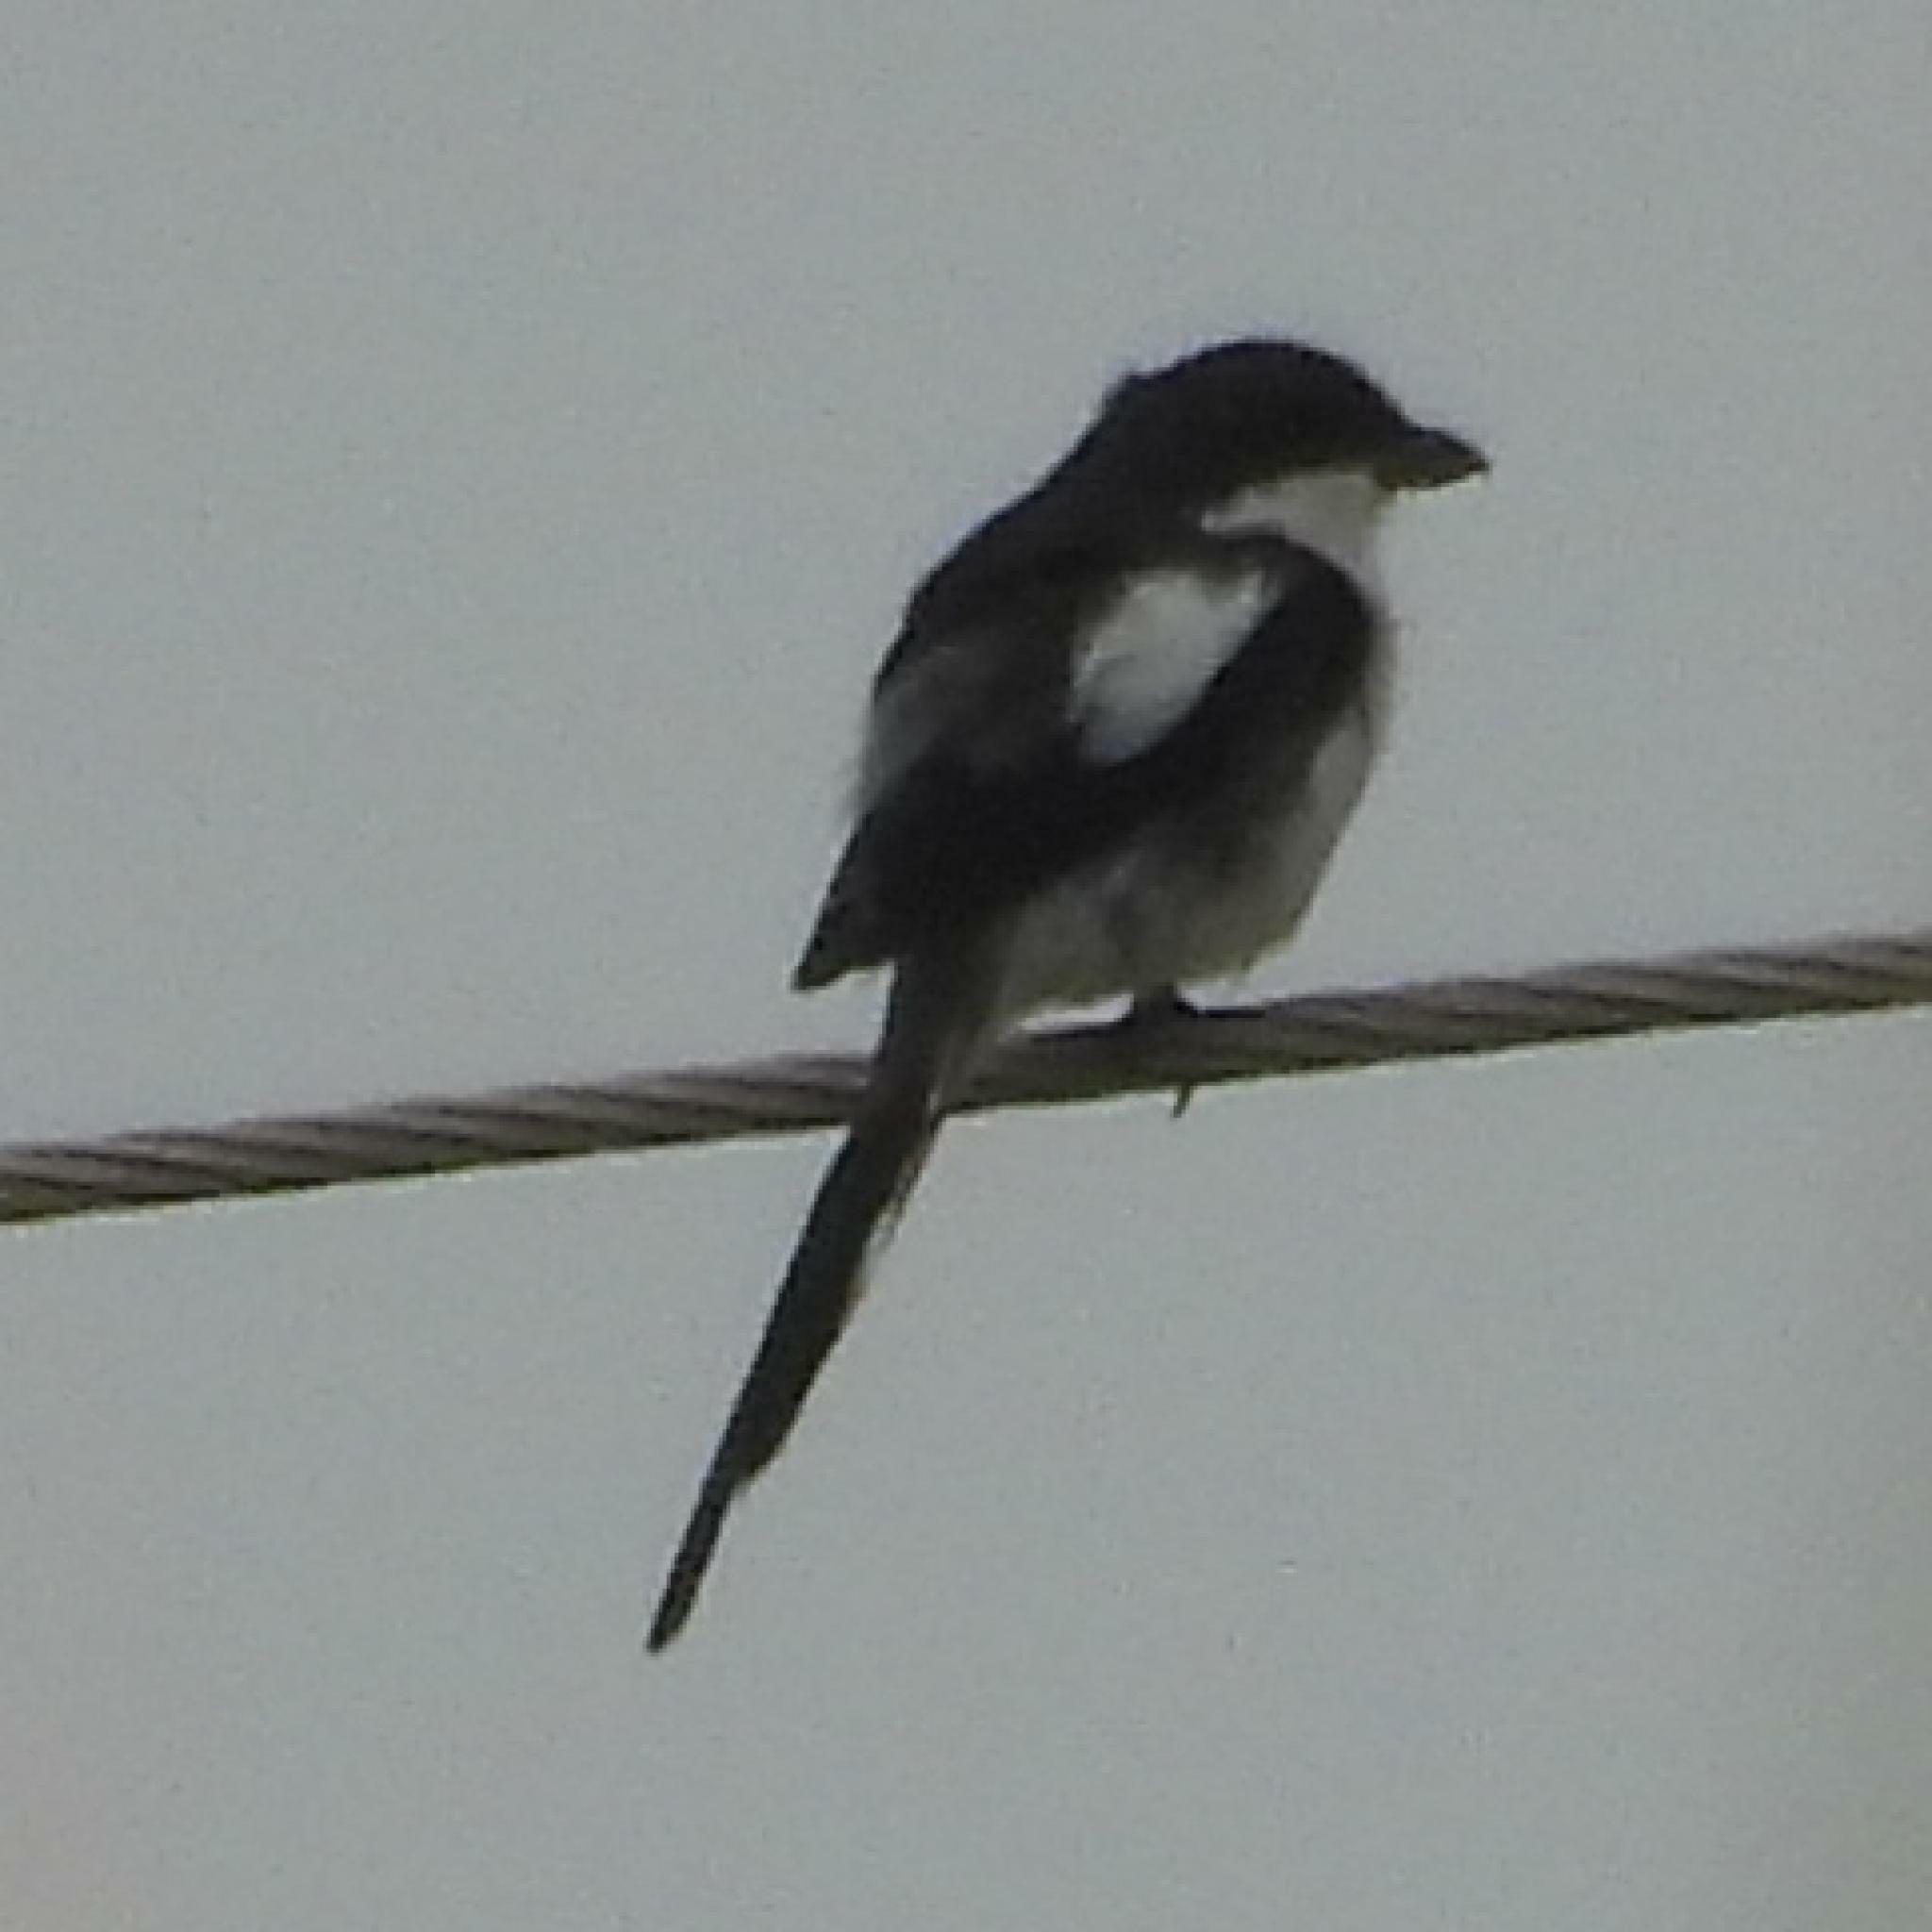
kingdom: Animalia
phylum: Chordata
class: Aves
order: Passeriformes
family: Laniidae
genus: Lanius
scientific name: Lanius collaris
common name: Southern fiscal
